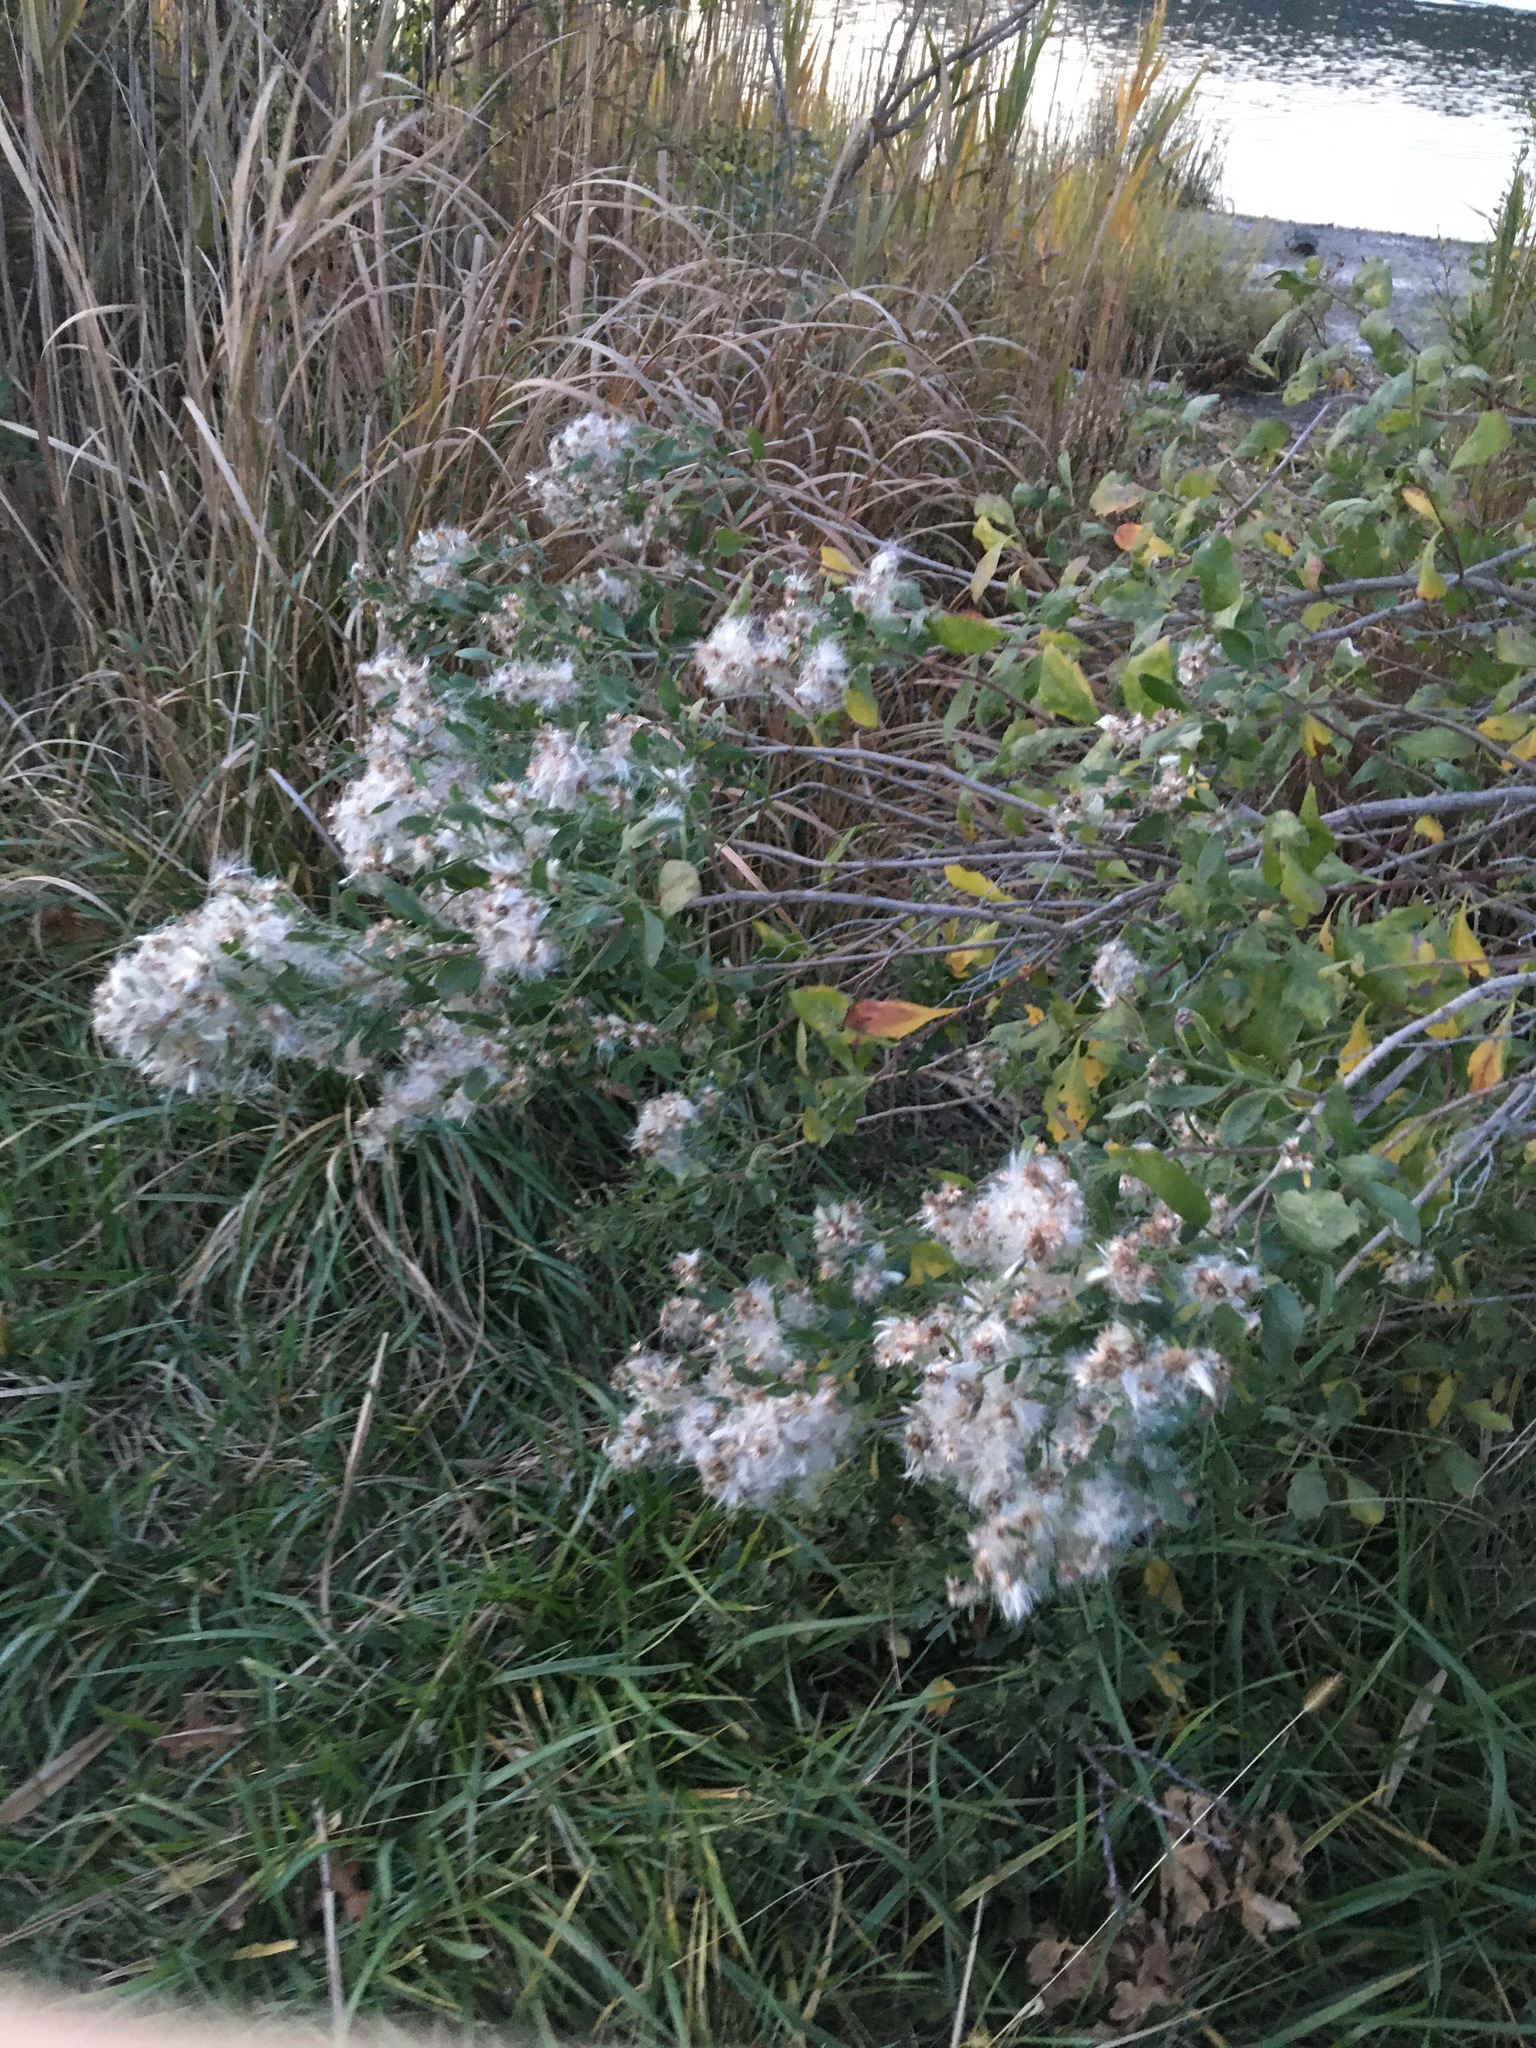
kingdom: Plantae
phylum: Tracheophyta
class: Magnoliopsida
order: Asterales
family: Asteraceae
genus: Baccharis
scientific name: Baccharis halimifolia
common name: Eastern baccharis
